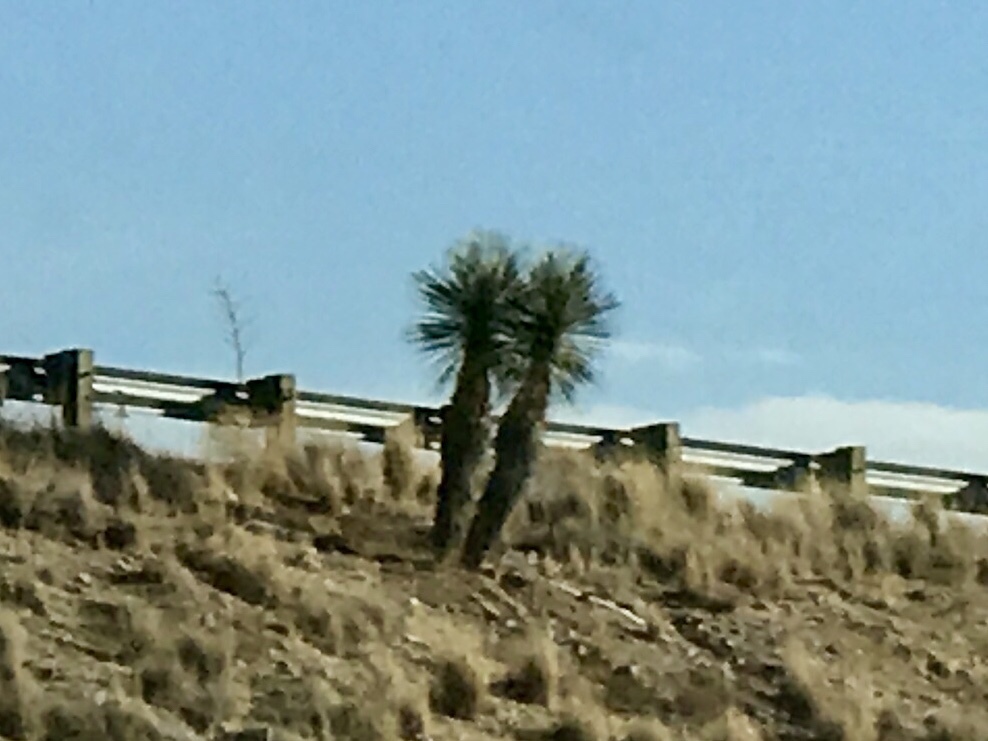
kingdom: Plantae
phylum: Tracheophyta
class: Liliopsida
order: Asparagales
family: Asparagaceae
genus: Yucca
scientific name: Yucca elata
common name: Palmella
